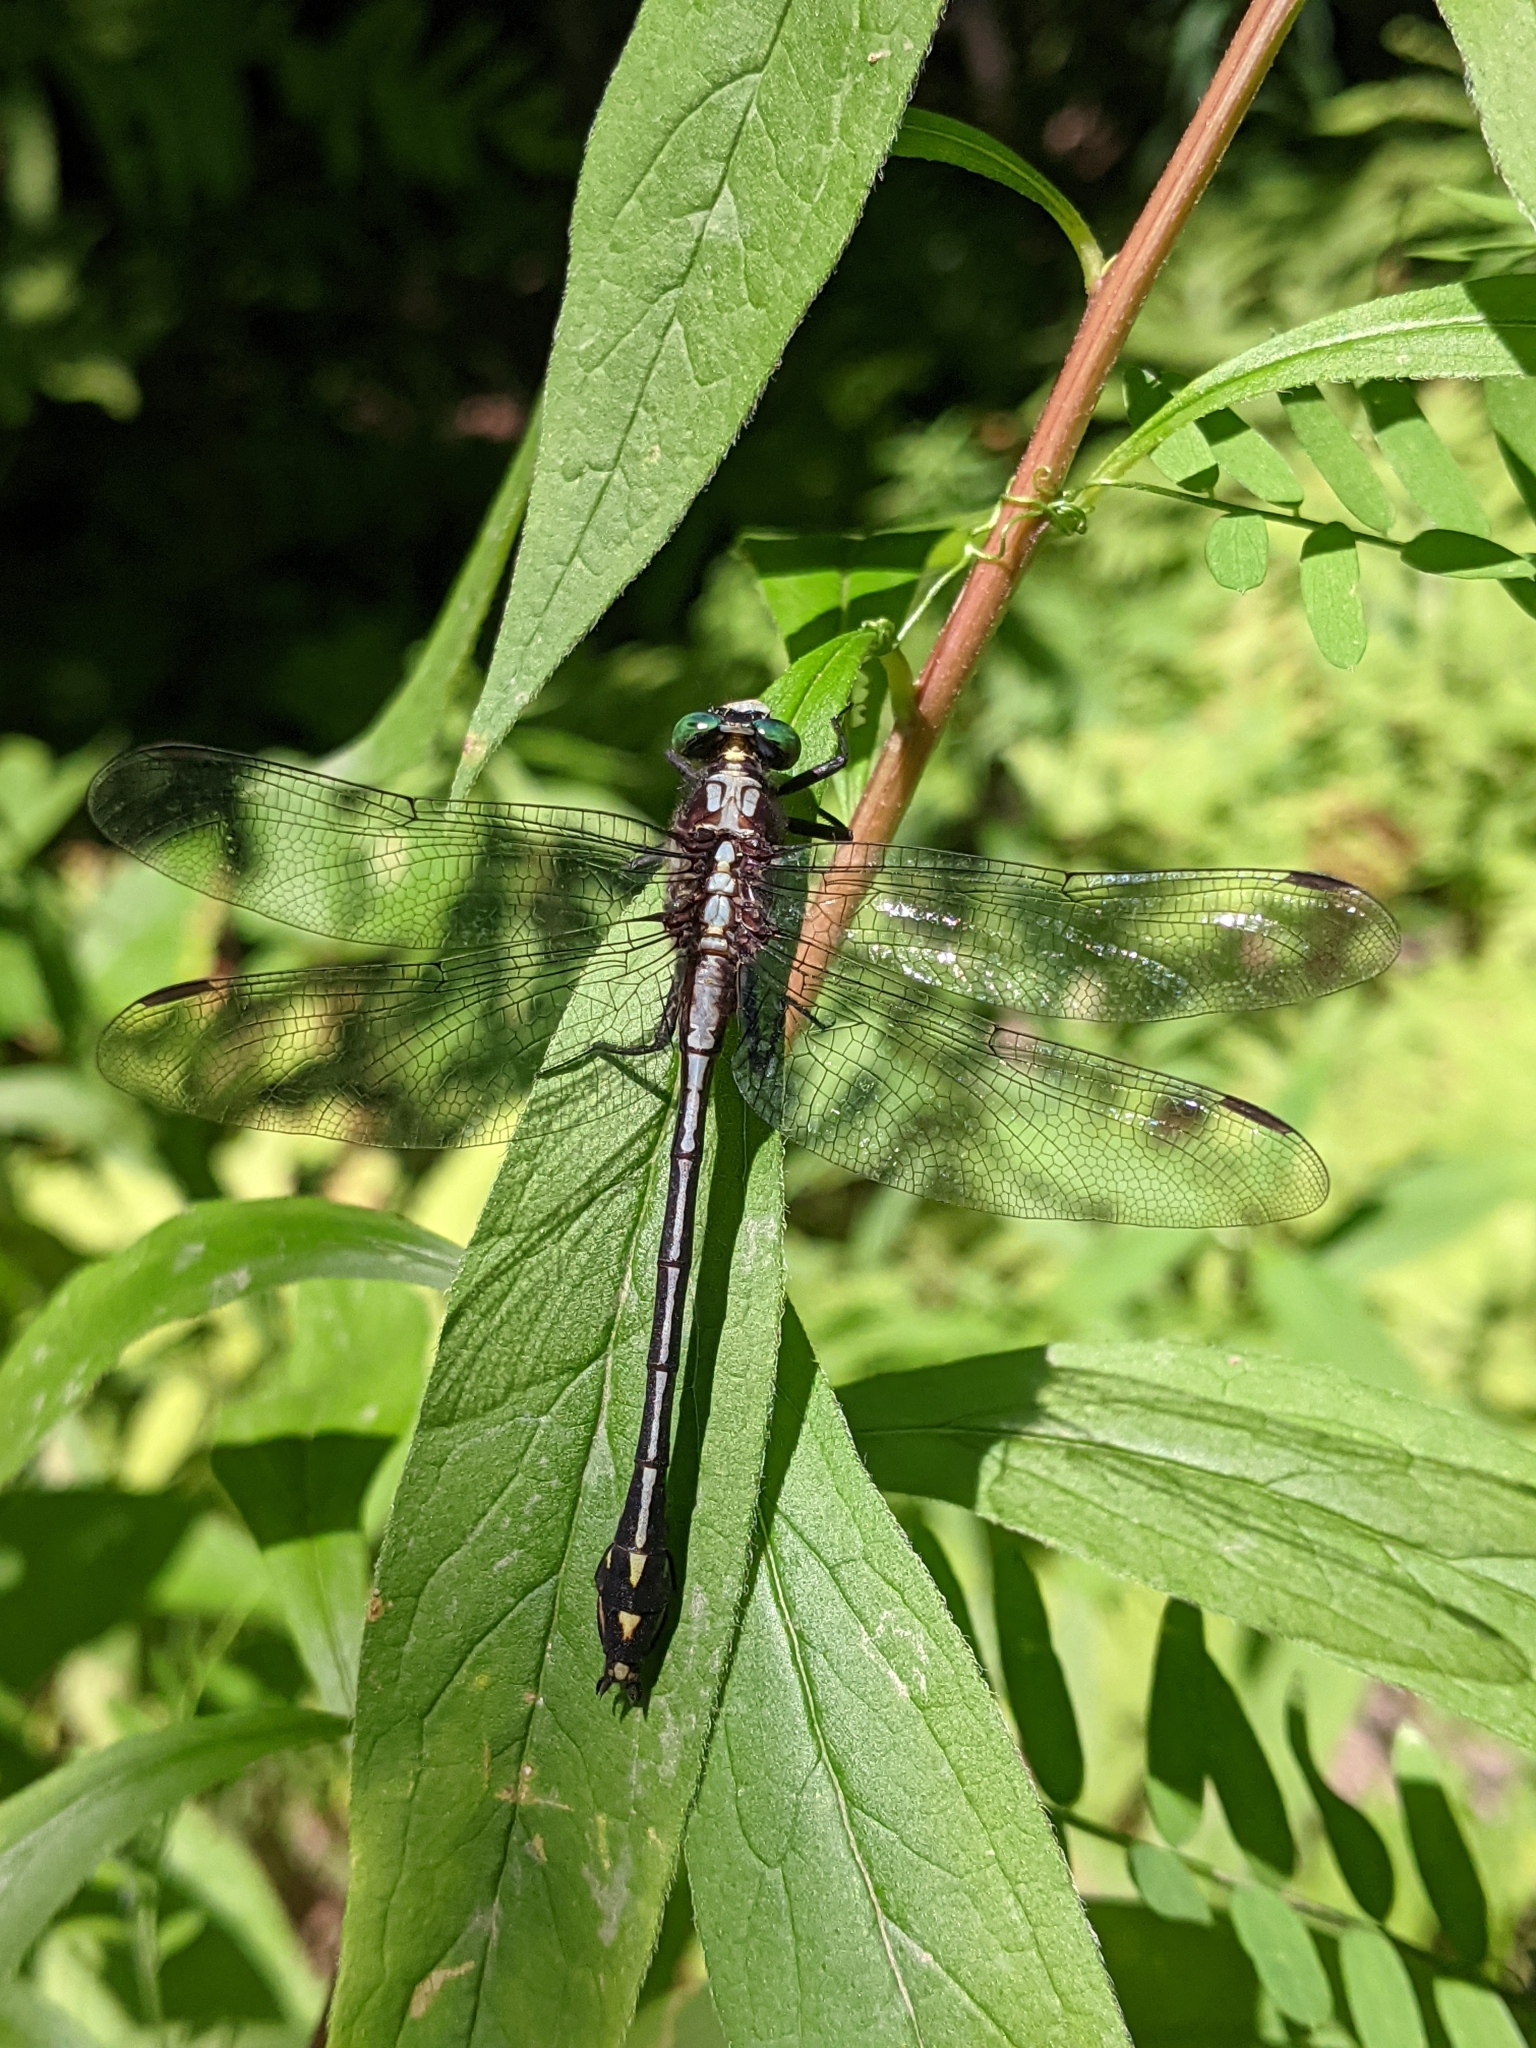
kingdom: Animalia
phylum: Arthropoda
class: Insecta
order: Odonata
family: Gomphidae
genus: Dromogomphus
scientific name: Dromogomphus spinosus
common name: Black-shouldered spinyleg
